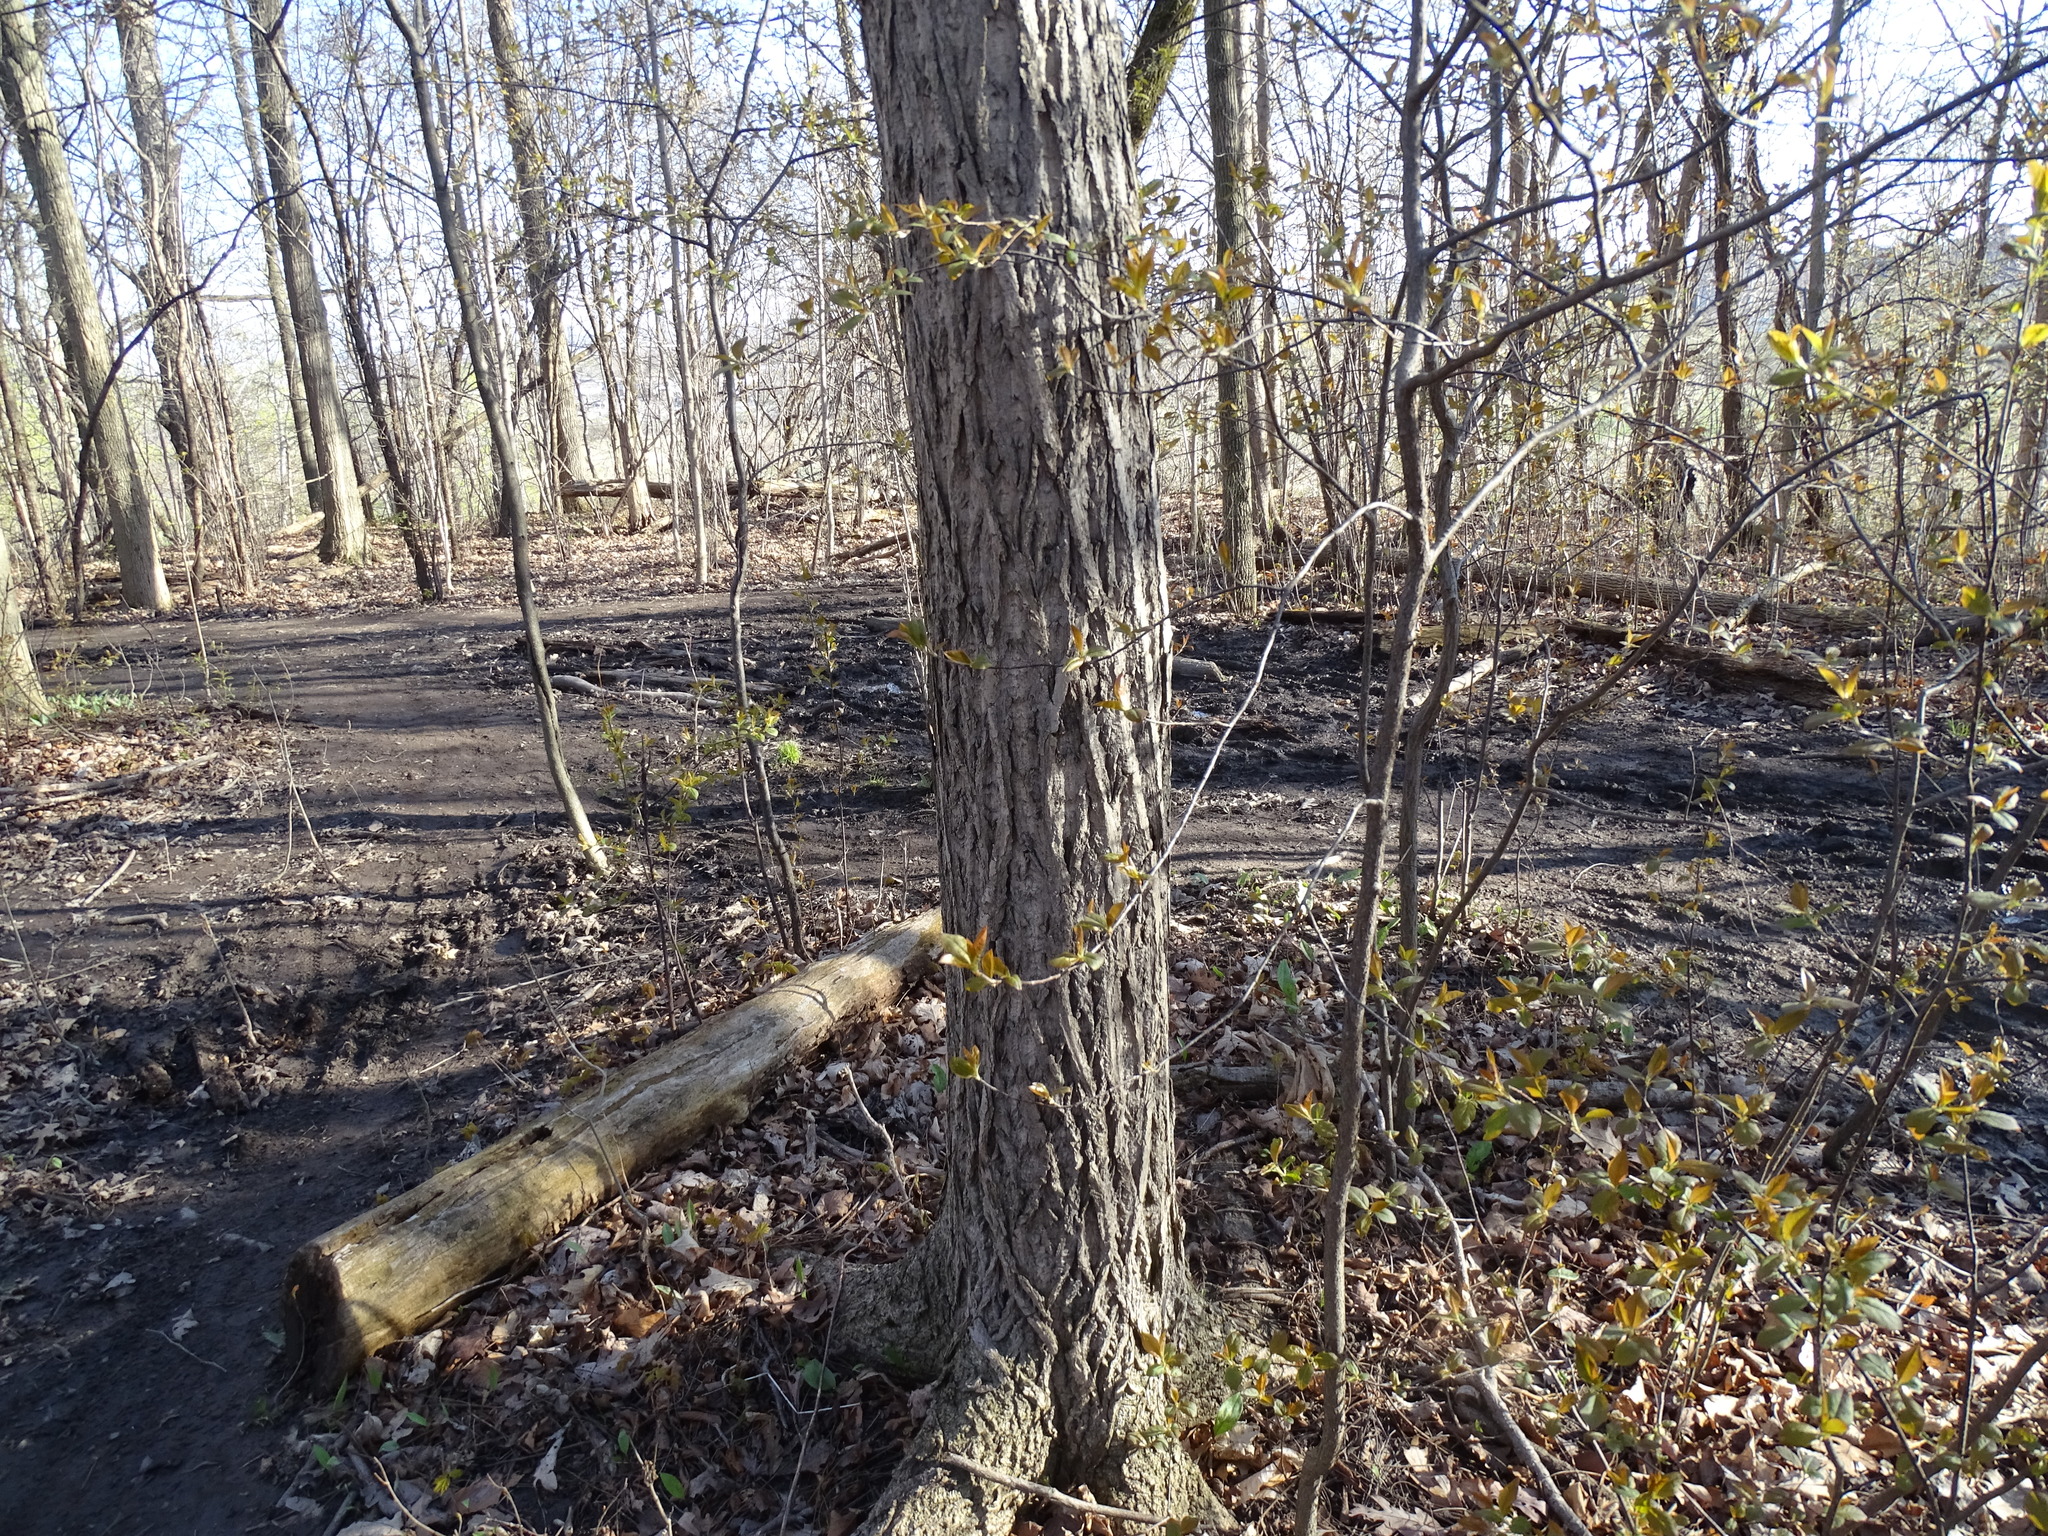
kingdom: Plantae
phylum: Tracheophyta
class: Magnoliopsida
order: Fagales
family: Juglandaceae
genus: Juglans
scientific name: Juglans cinerea
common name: Butternut
